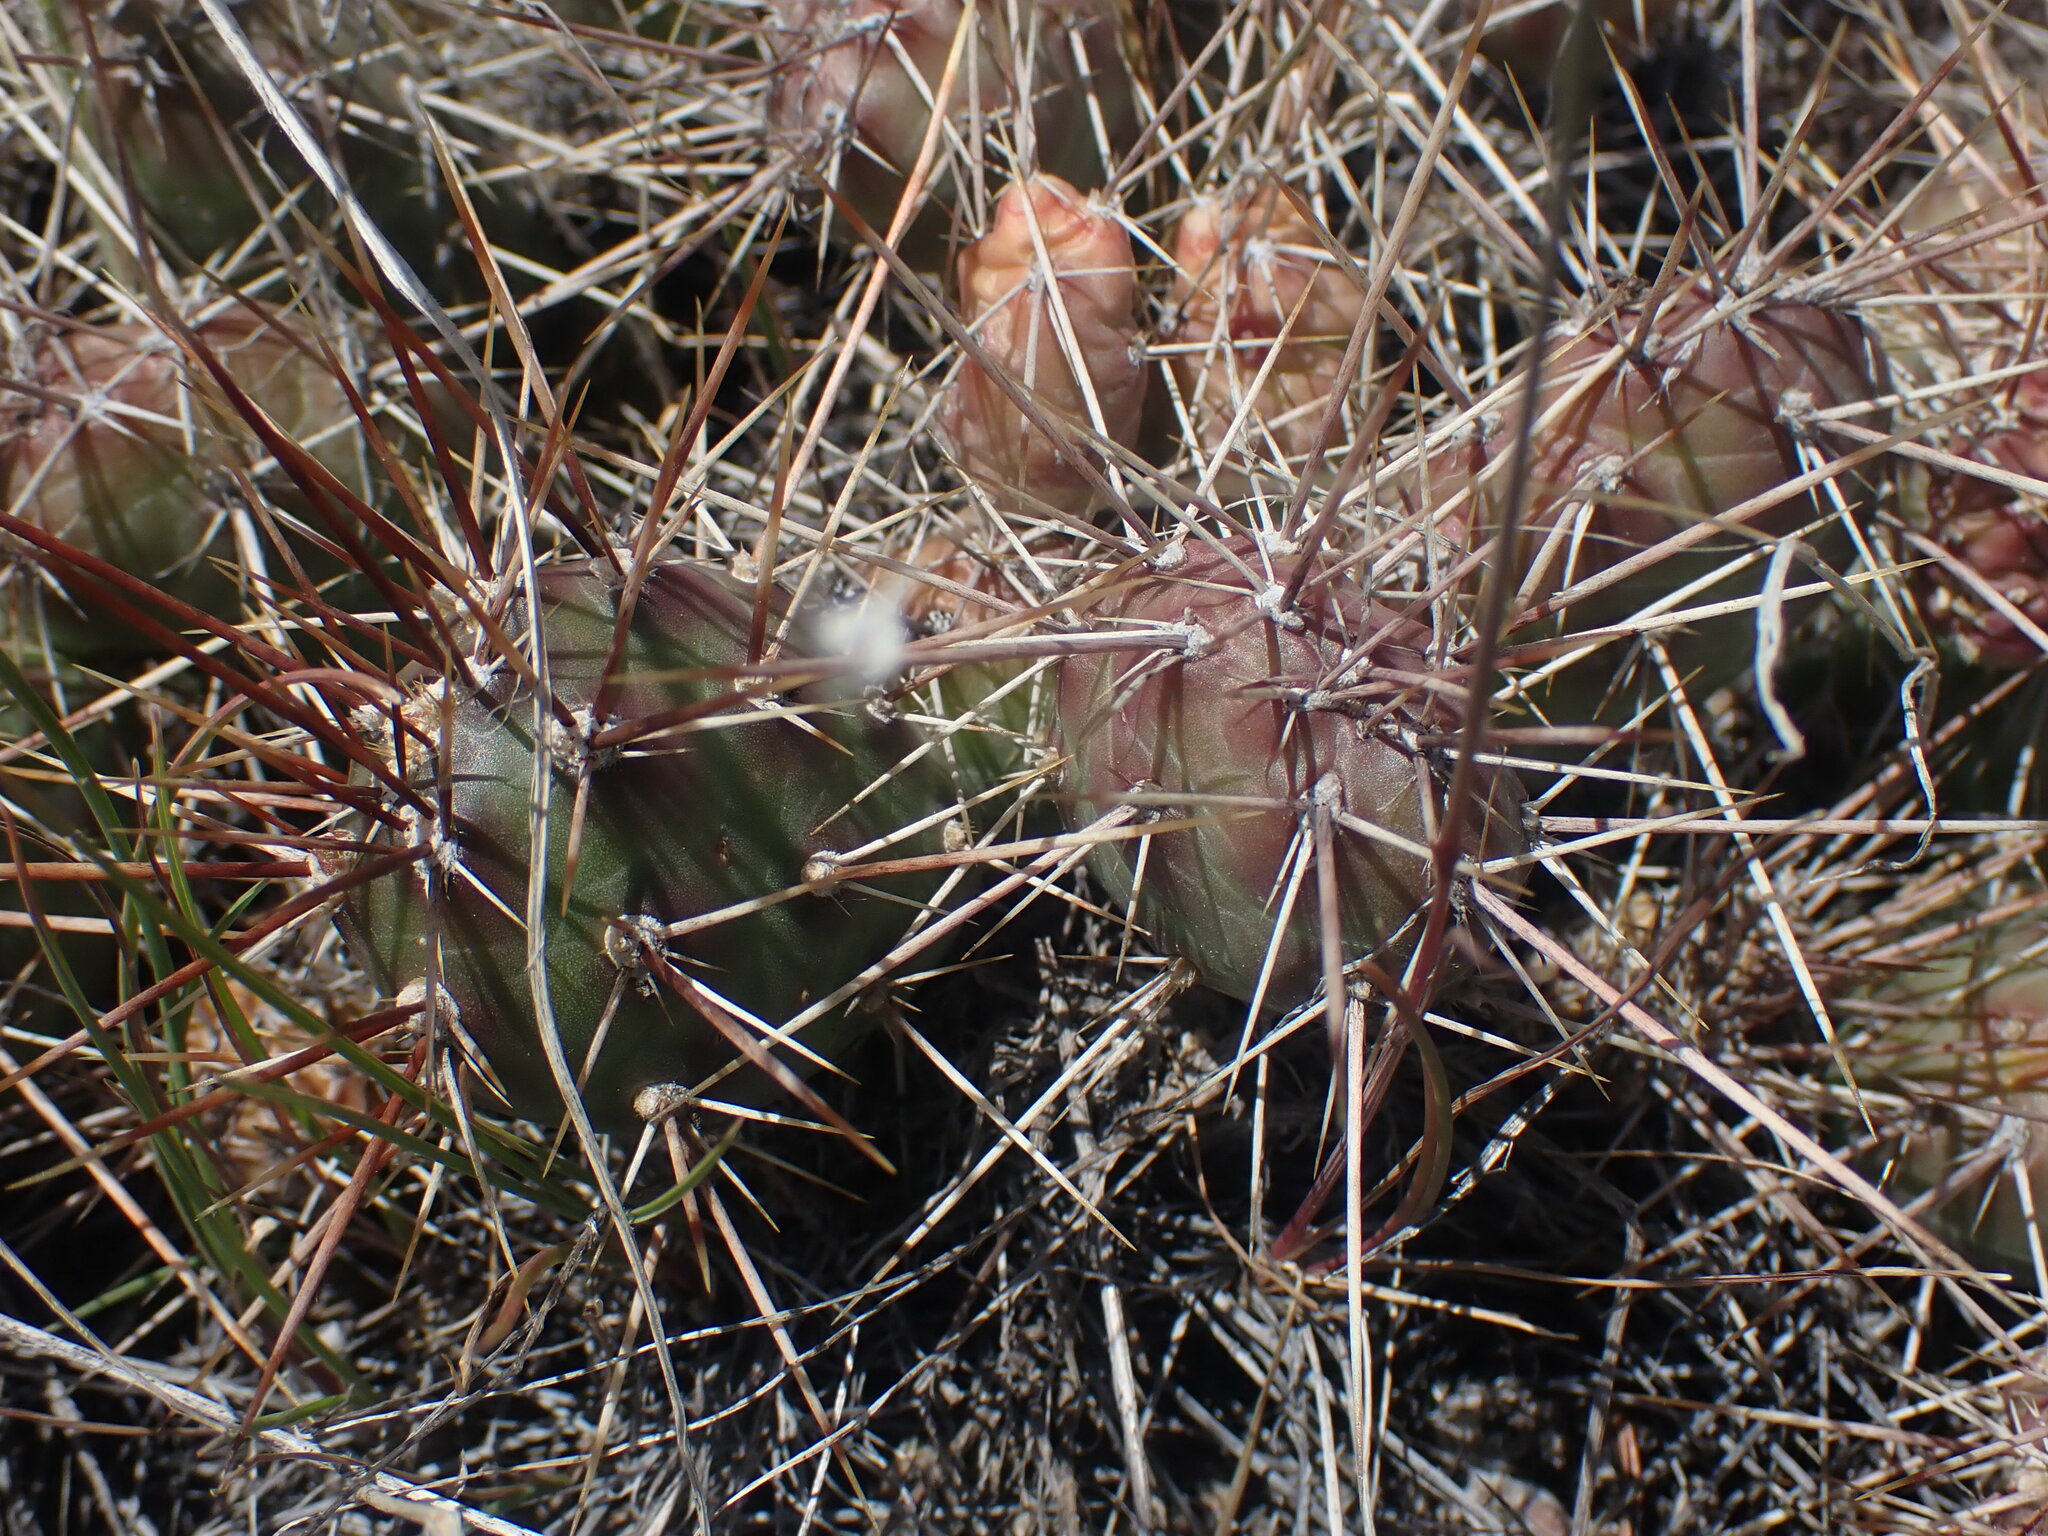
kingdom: Plantae
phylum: Tracheophyta
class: Magnoliopsida
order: Caryophyllales
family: Cactaceae
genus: Opuntia
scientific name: Opuntia fragilis
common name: Brittle cactus
